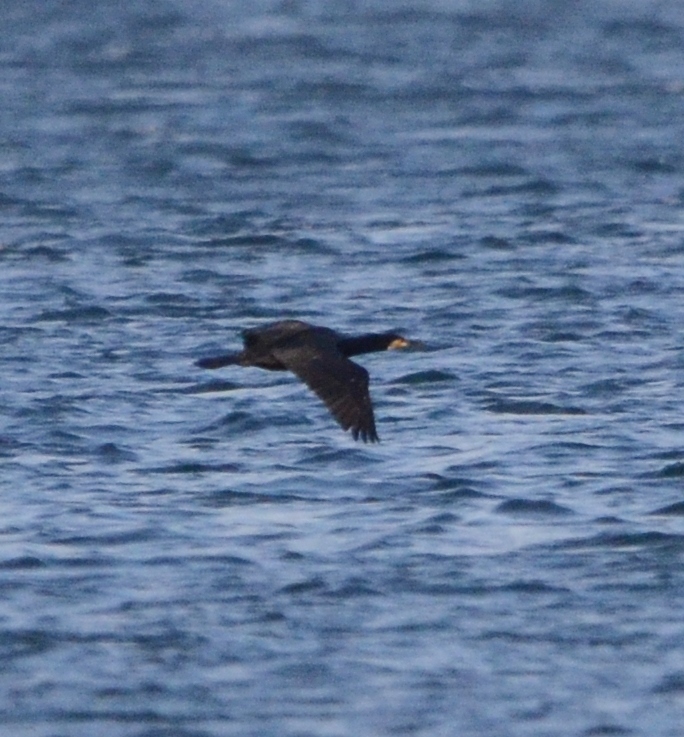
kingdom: Animalia
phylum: Chordata
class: Aves
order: Suliformes
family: Phalacrocoracidae
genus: Phalacrocorax
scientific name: Phalacrocorax carbo
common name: Great cormorant
